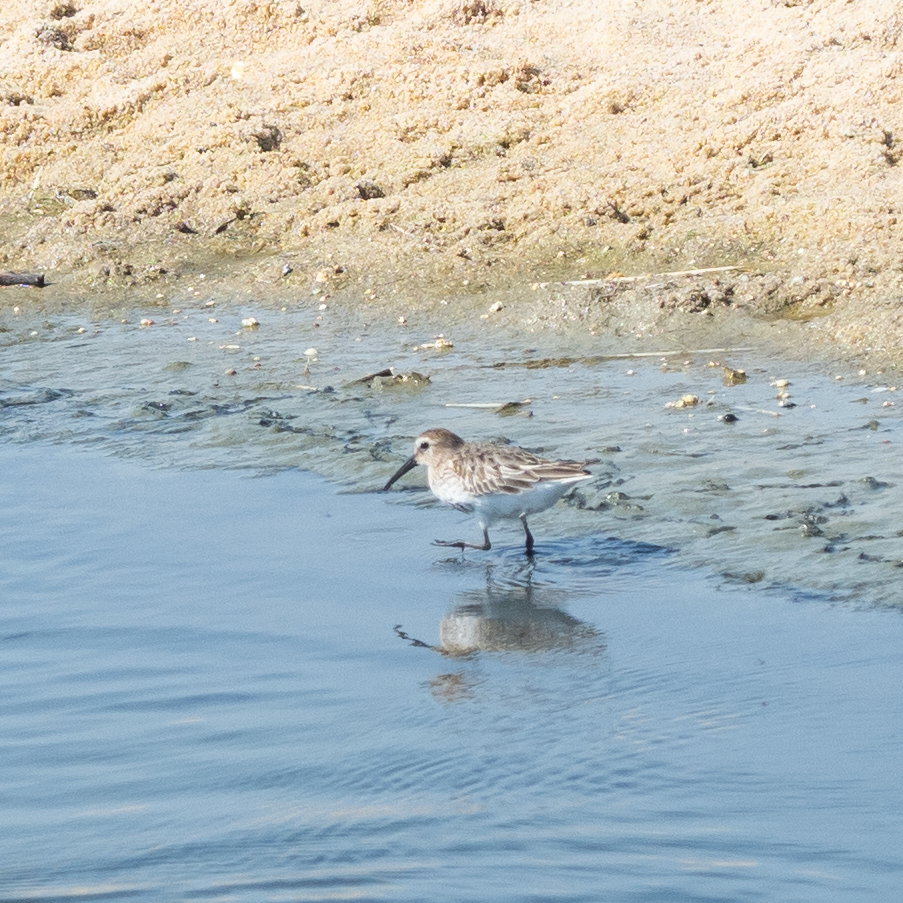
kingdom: Animalia
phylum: Chordata
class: Aves
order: Charadriiformes
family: Scolopacidae
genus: Calidris
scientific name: Calidris alpina
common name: Dunlin
